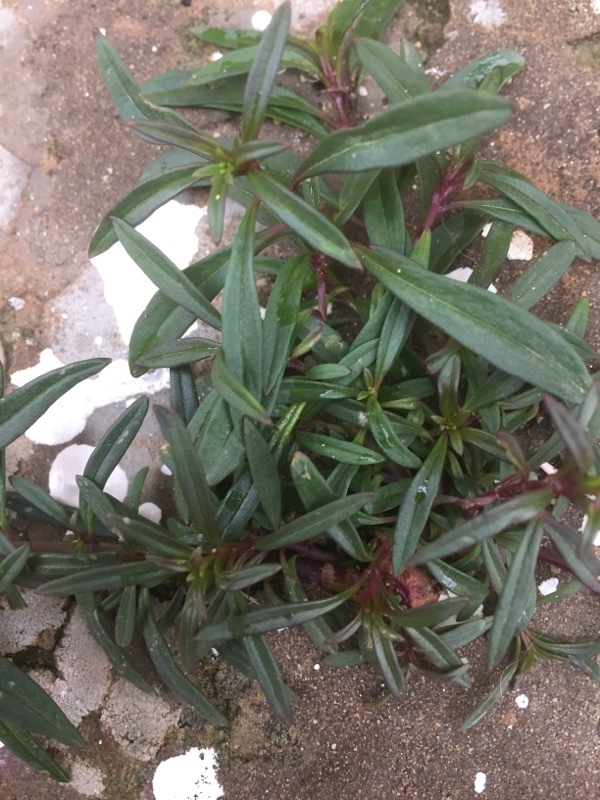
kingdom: Plantae
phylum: Tracheophyta
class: Magnoliopsida
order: Lamiales
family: Plantaginaceae
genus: Antirrhinum
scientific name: Antirrhinum siculum
